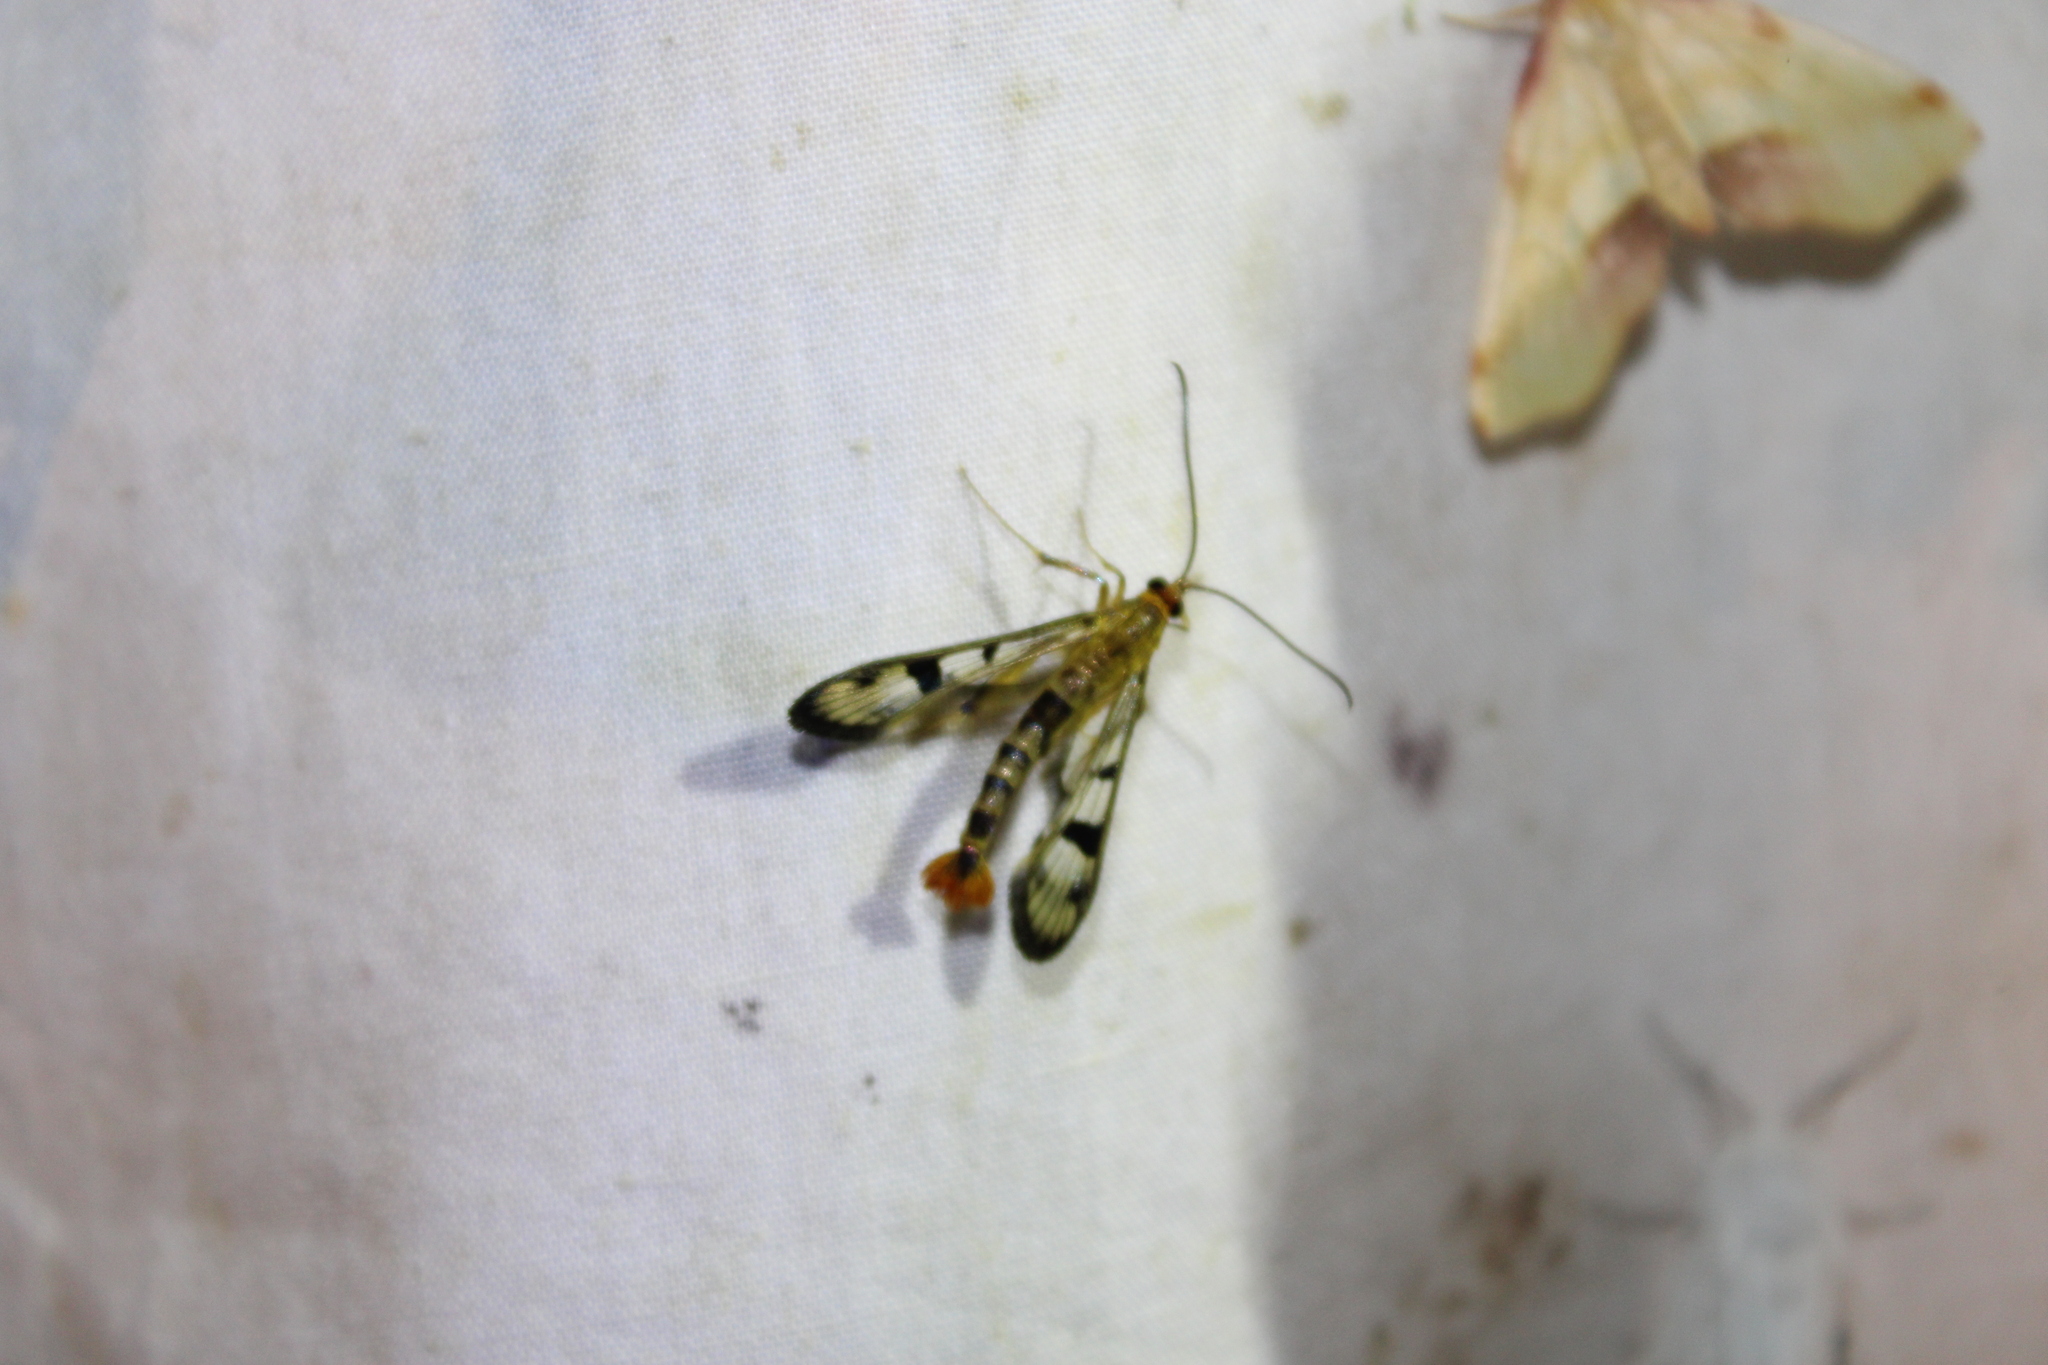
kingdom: Animalia
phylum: Arthropoda
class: Insecta
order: Lepidoptera
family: Sesiidae
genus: Synanthedon
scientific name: Synanthedon acerni
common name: Maple callus borer moth
